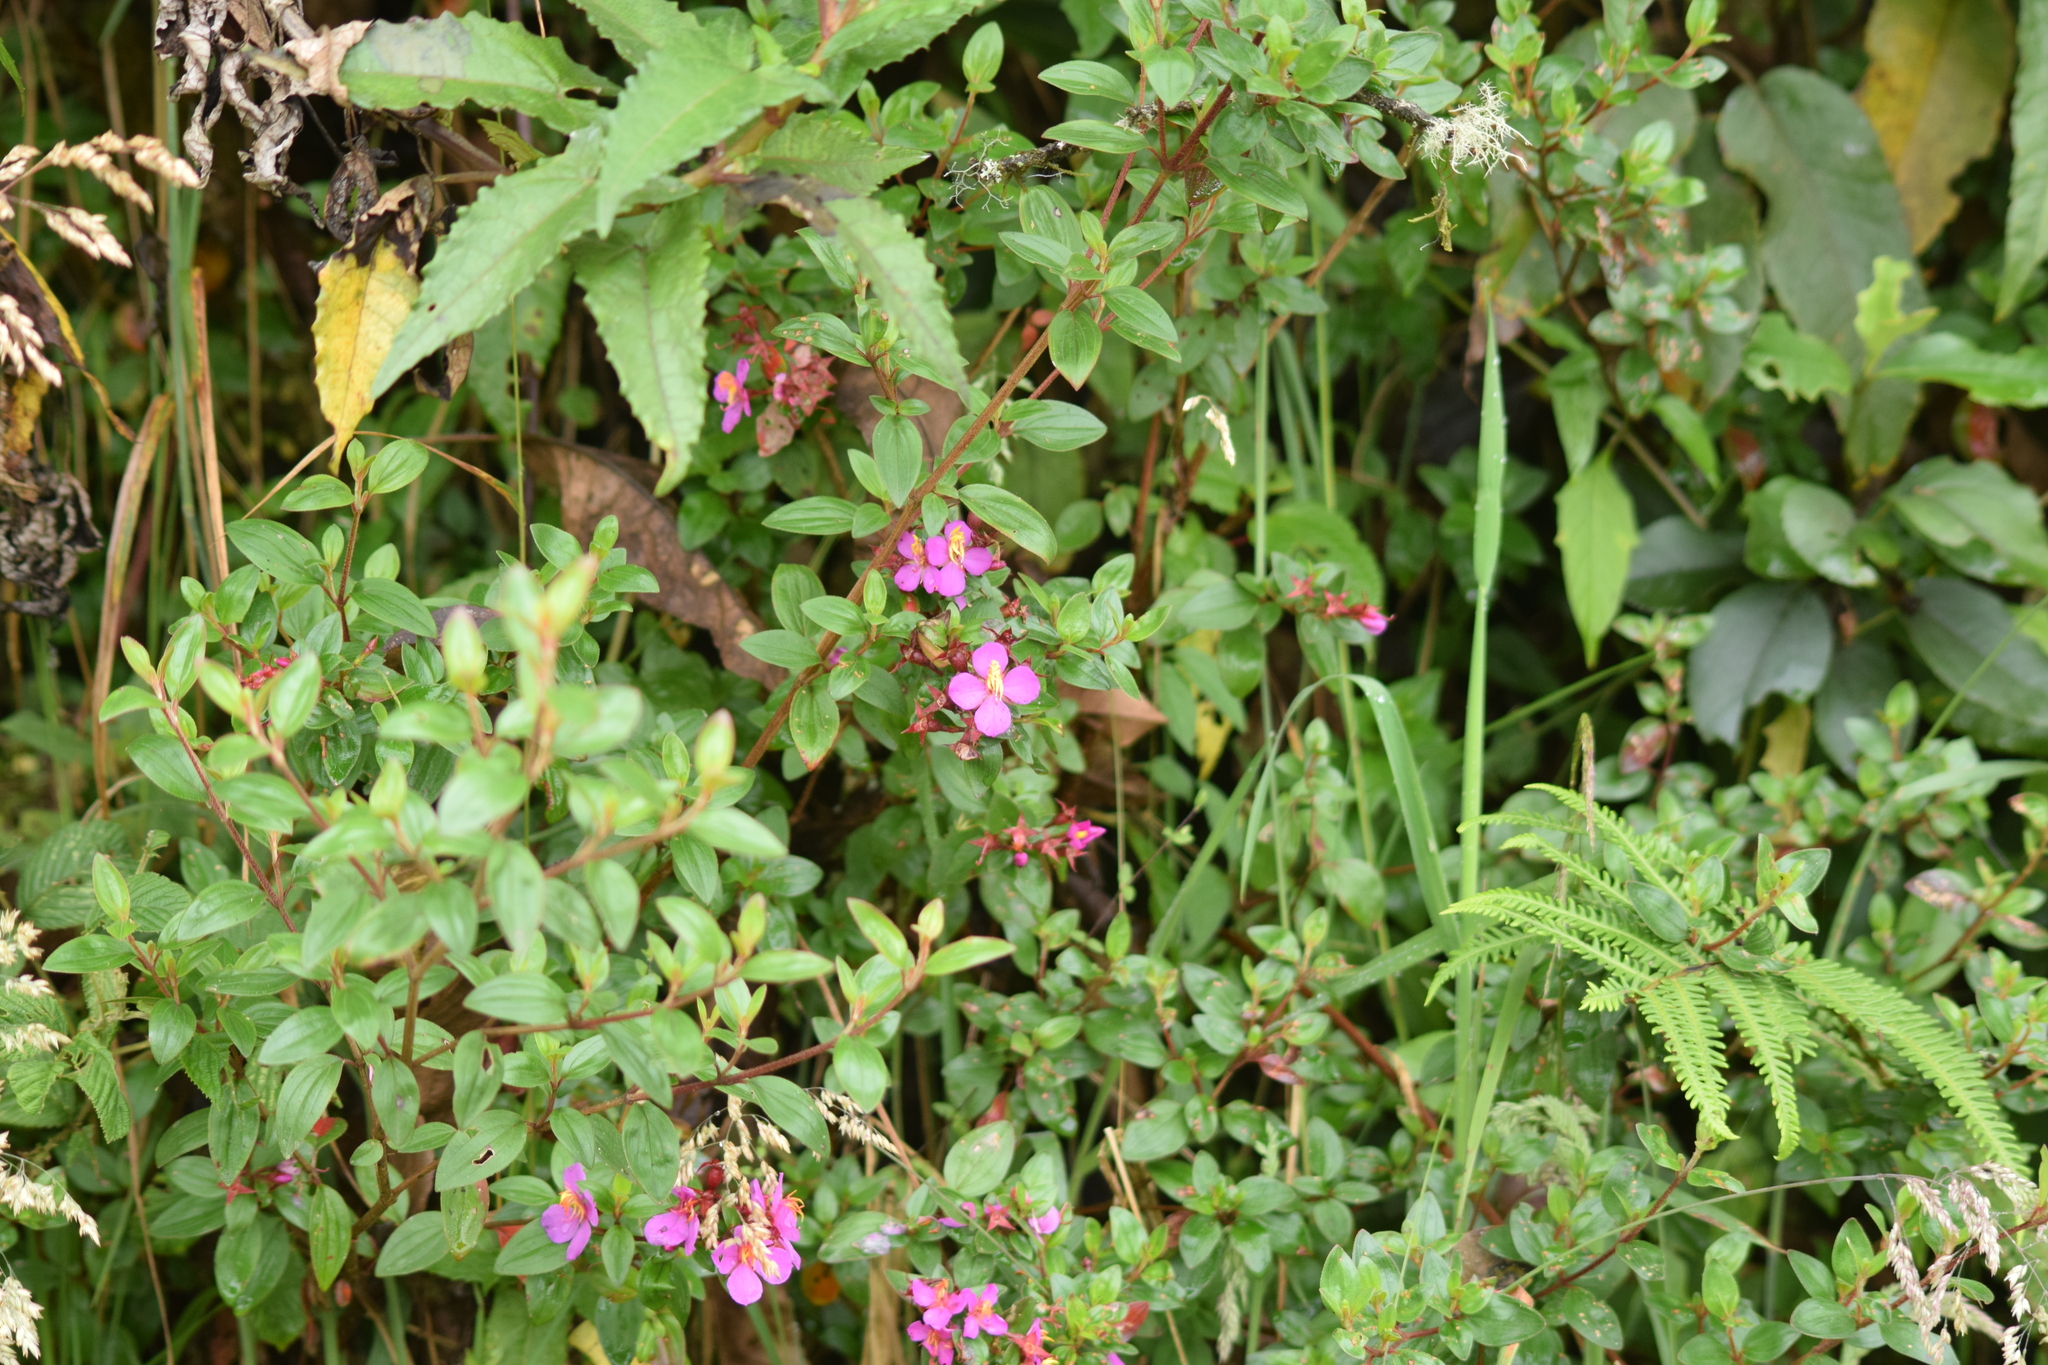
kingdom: Plantae
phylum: Tracheophyta
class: Magnoliopsida
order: Myrtales
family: Melastomataceae
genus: Monochaetum
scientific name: Monochaetum myrtoideum
